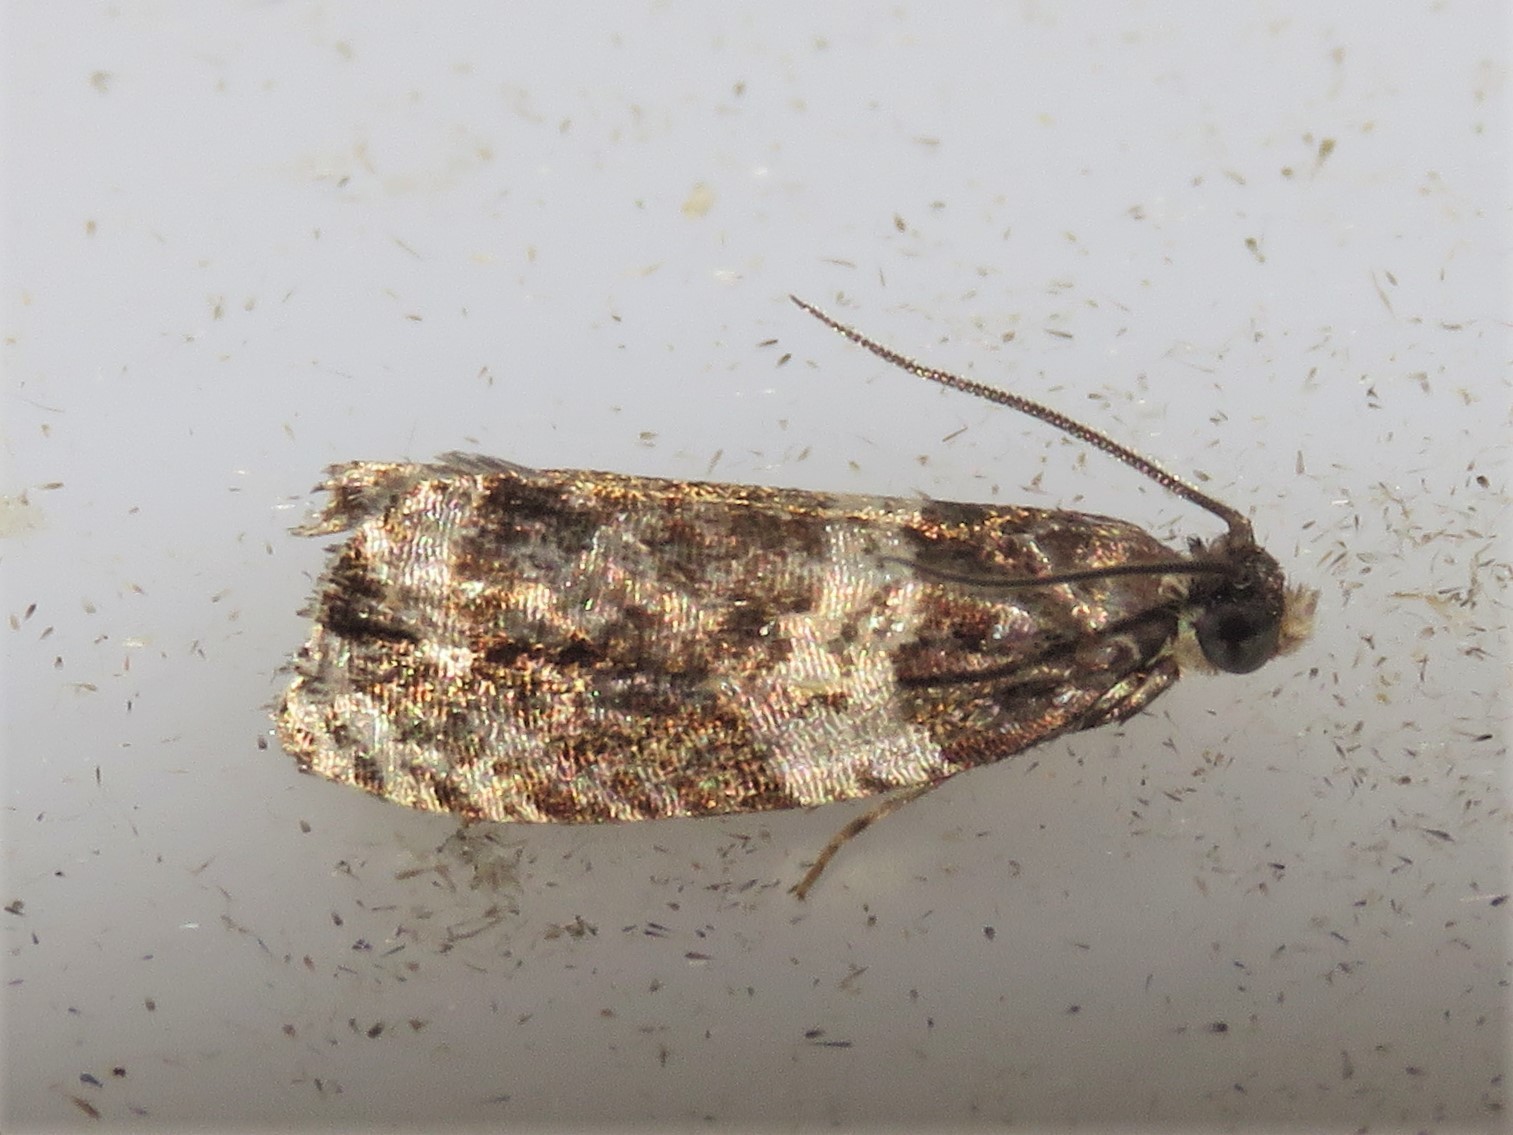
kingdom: Animalia
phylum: Arthropoda
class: Insecta
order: Lepidoptera
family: Tortricidae
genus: Olethreutes
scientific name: Olethreutes fasciatana
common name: Banded olethreutes moth
